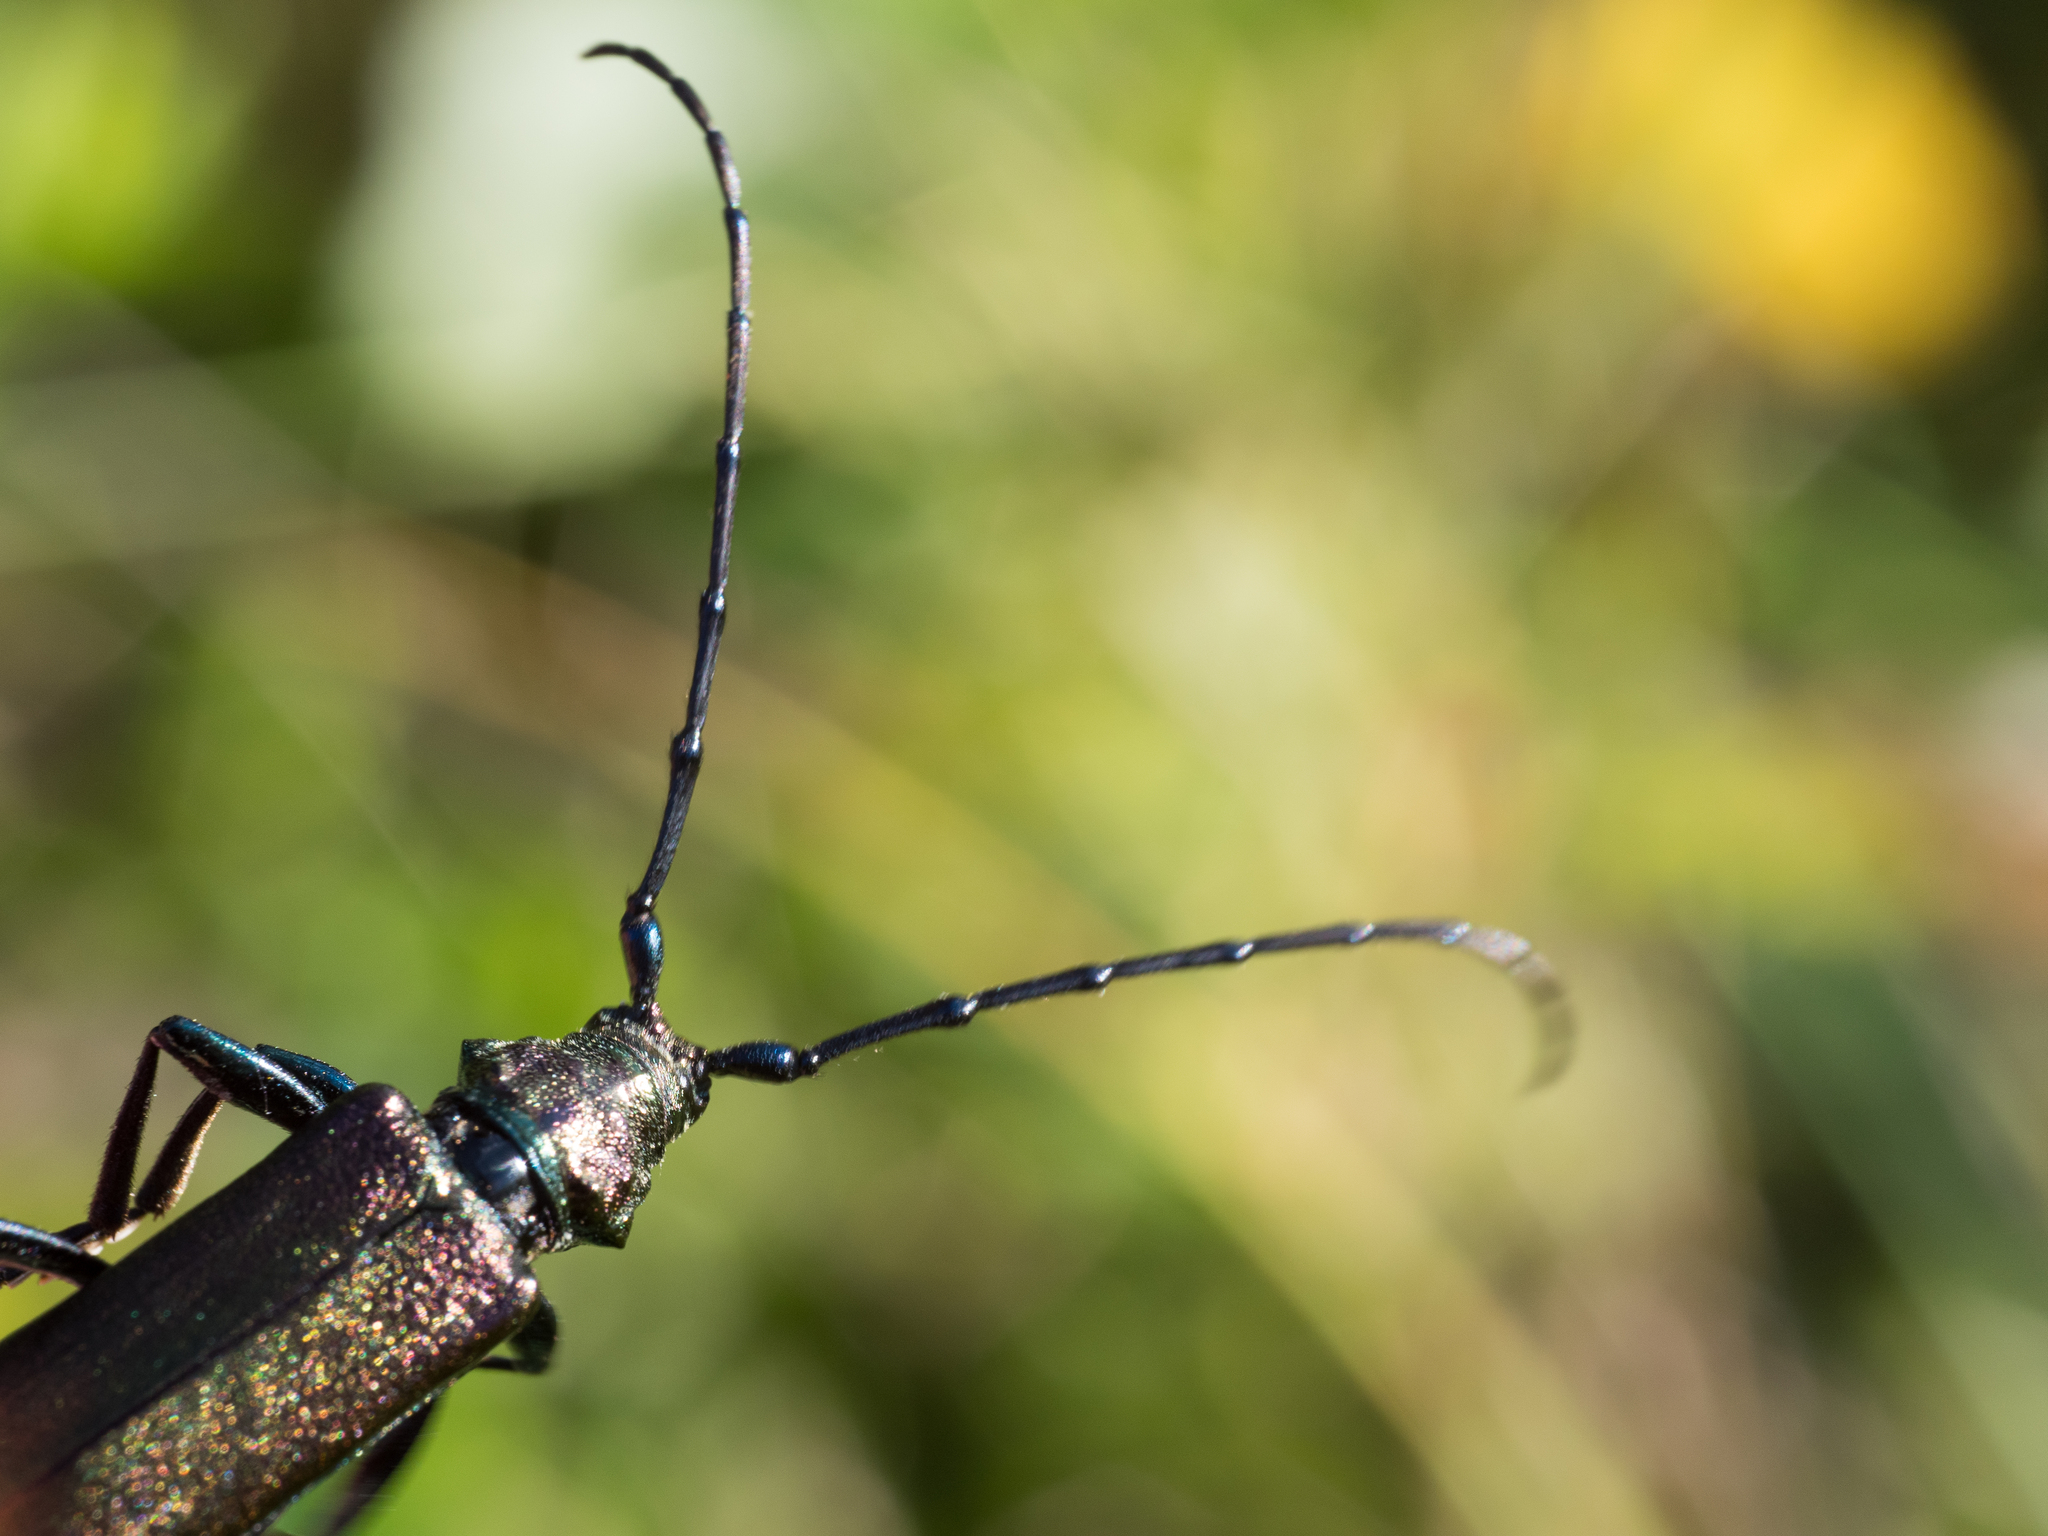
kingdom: Animalia
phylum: Arthropoda
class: Insecta
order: Coleoptera
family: Cerambycidae
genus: Aromia
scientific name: Aromia moschata
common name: Musk beetle
